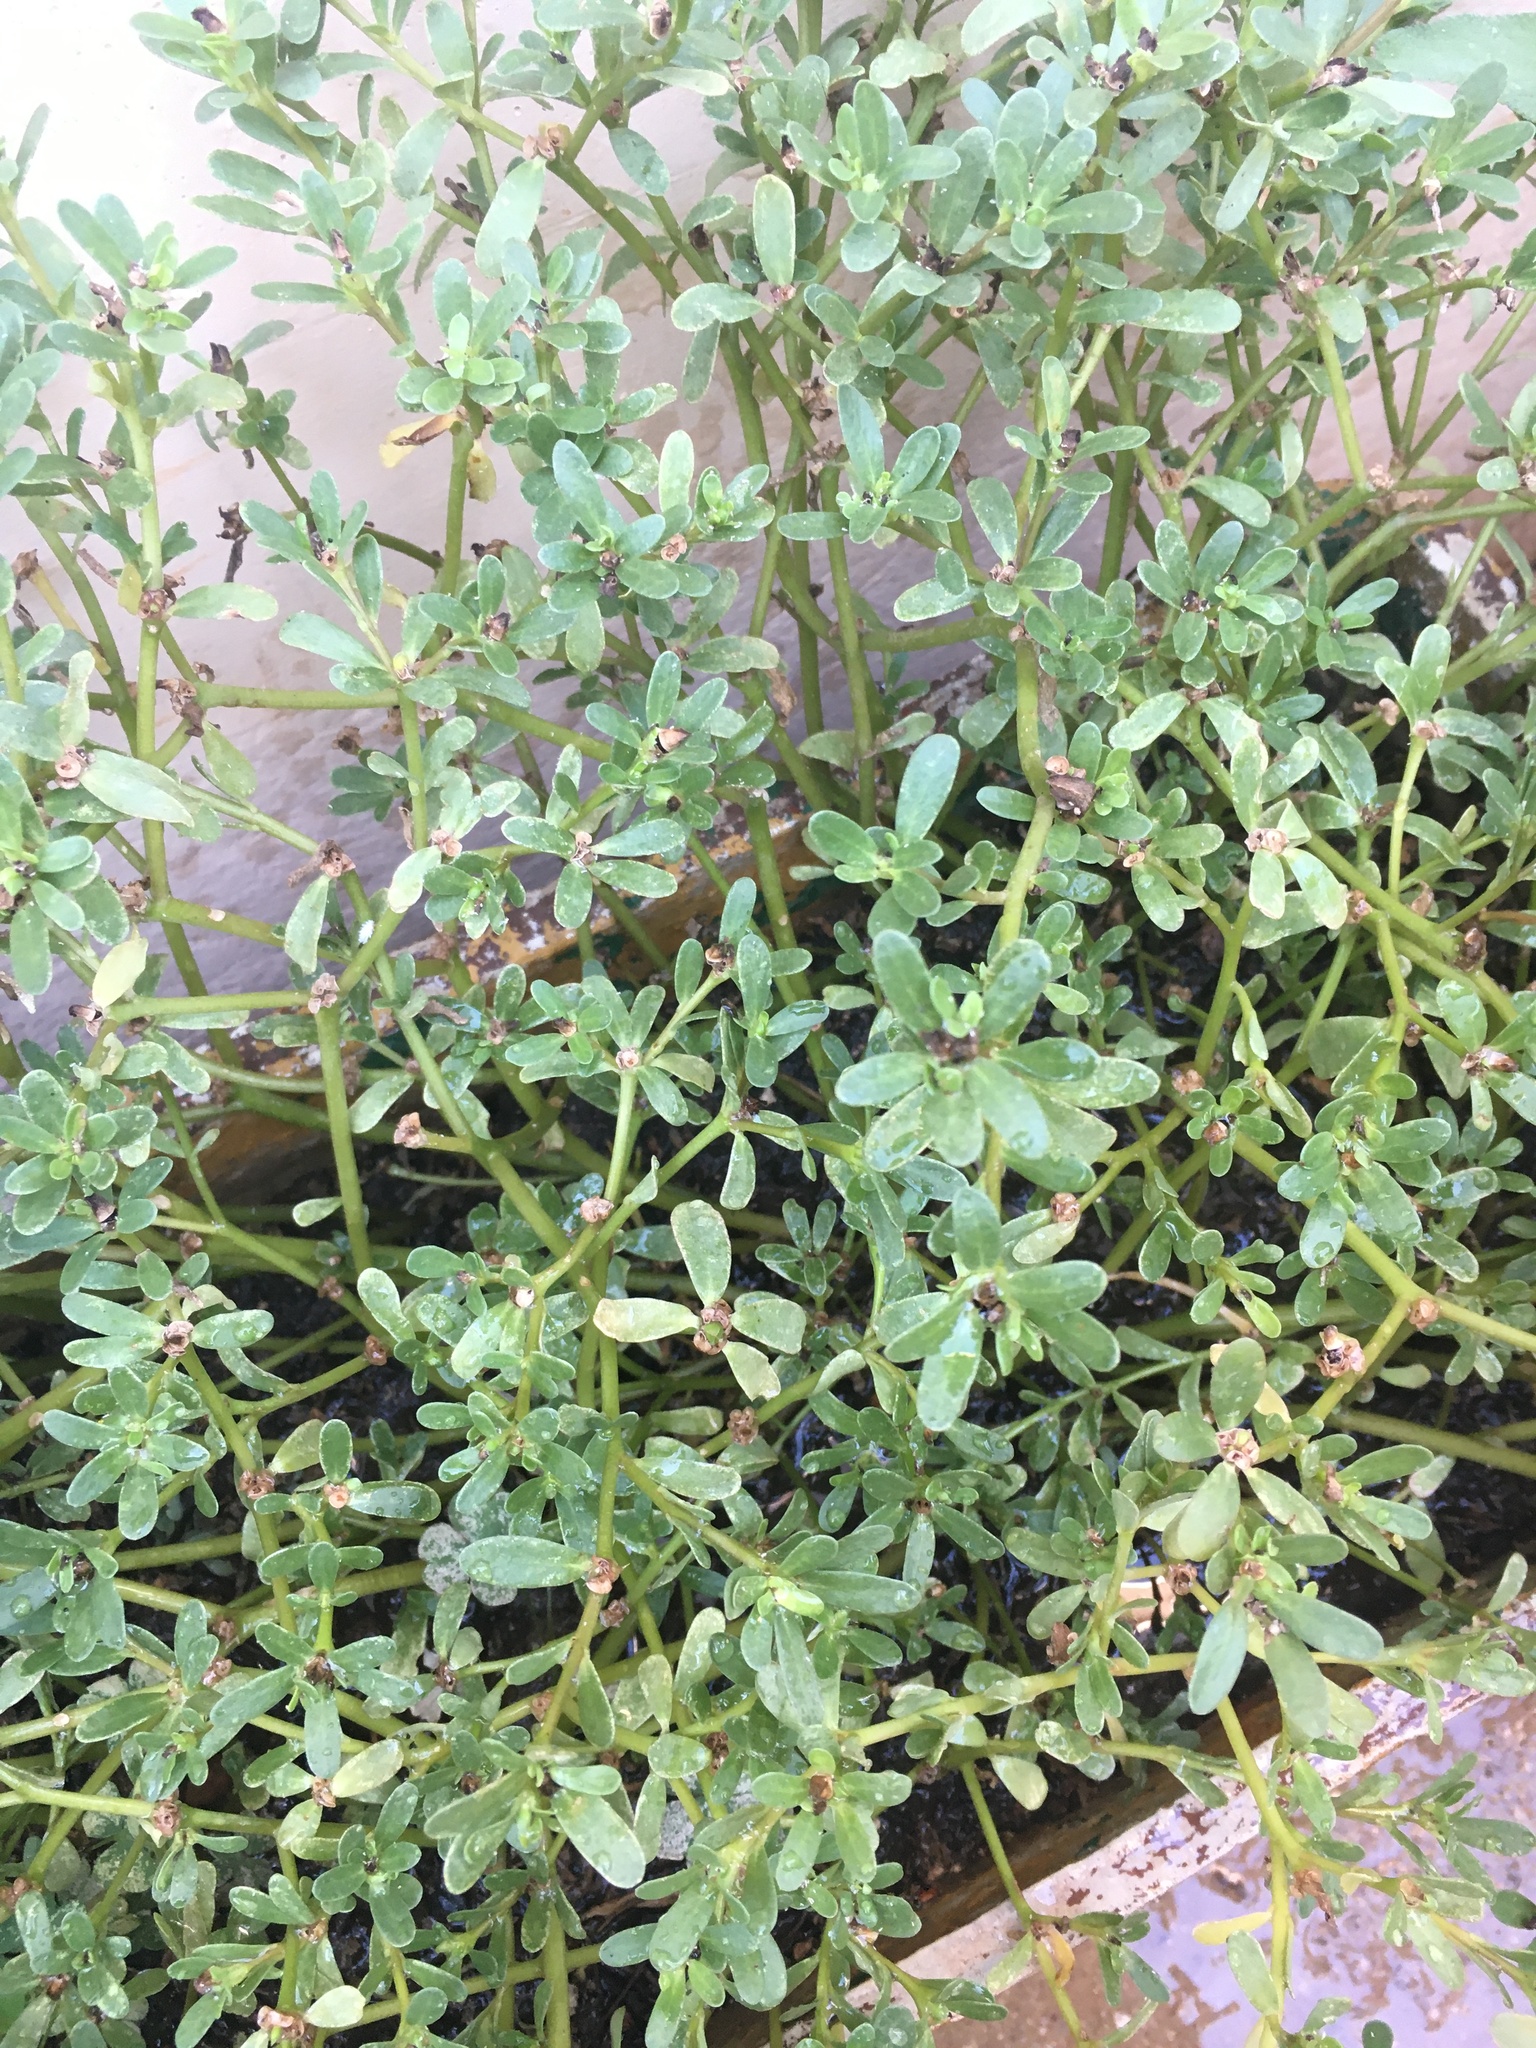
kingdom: Plantae
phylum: Tracheophyta
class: Magnoliopsida
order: Caryophyllales
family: Portulacaceae
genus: Portulaca
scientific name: Portulaca oleracea
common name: Common purslane
